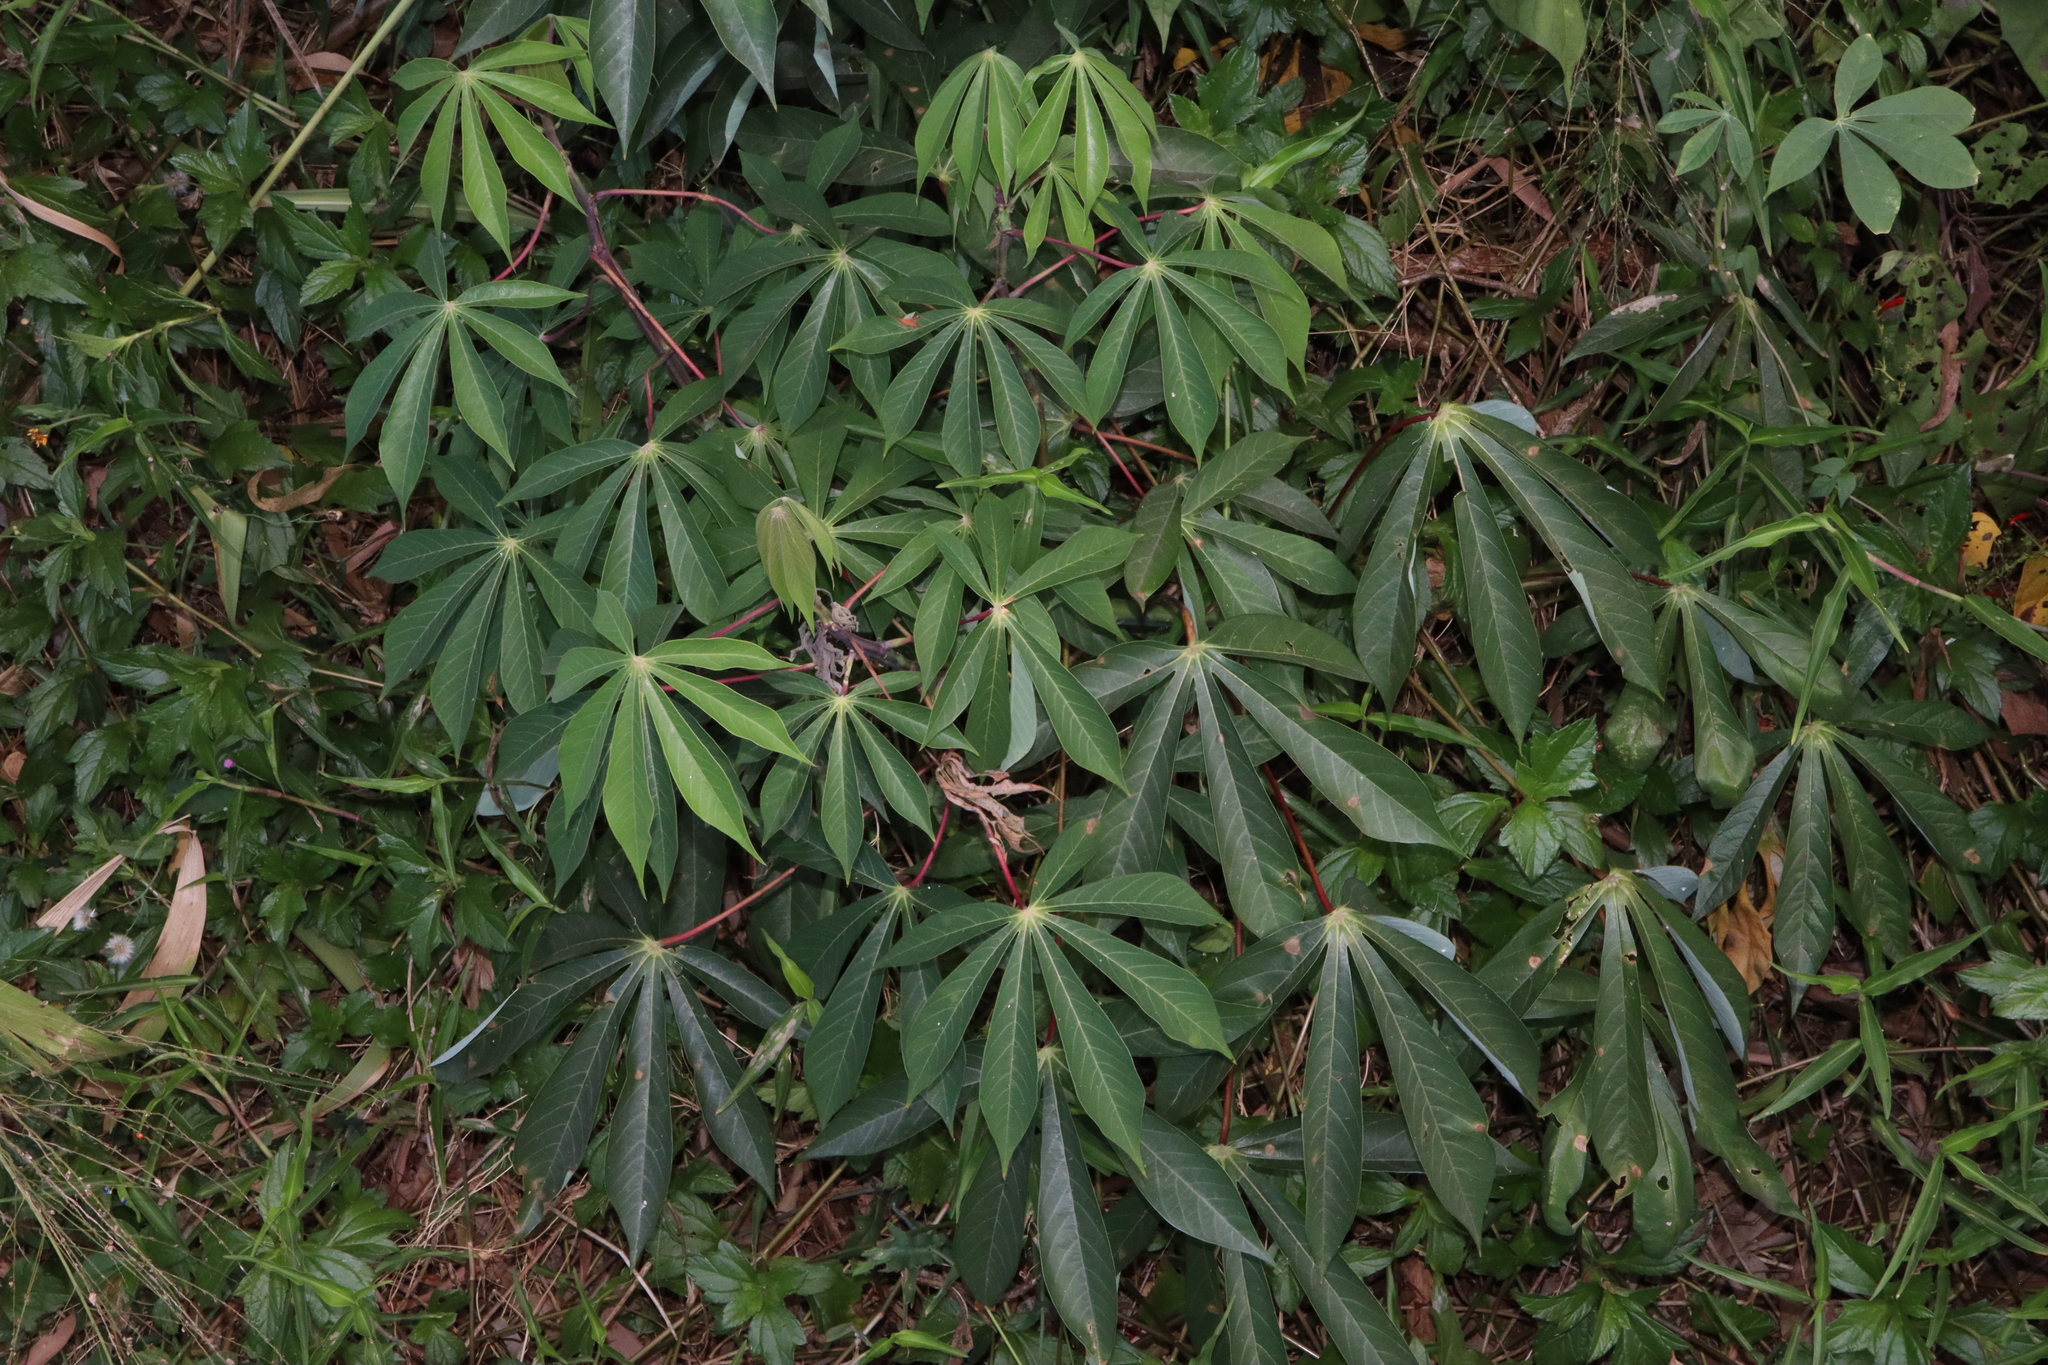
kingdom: Plantae
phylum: Tracheophyta
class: Magnoliopsida
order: Malpighiales
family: Euphorbiaceae
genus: Manihot
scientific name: Manihot esculenta
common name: Cassava
